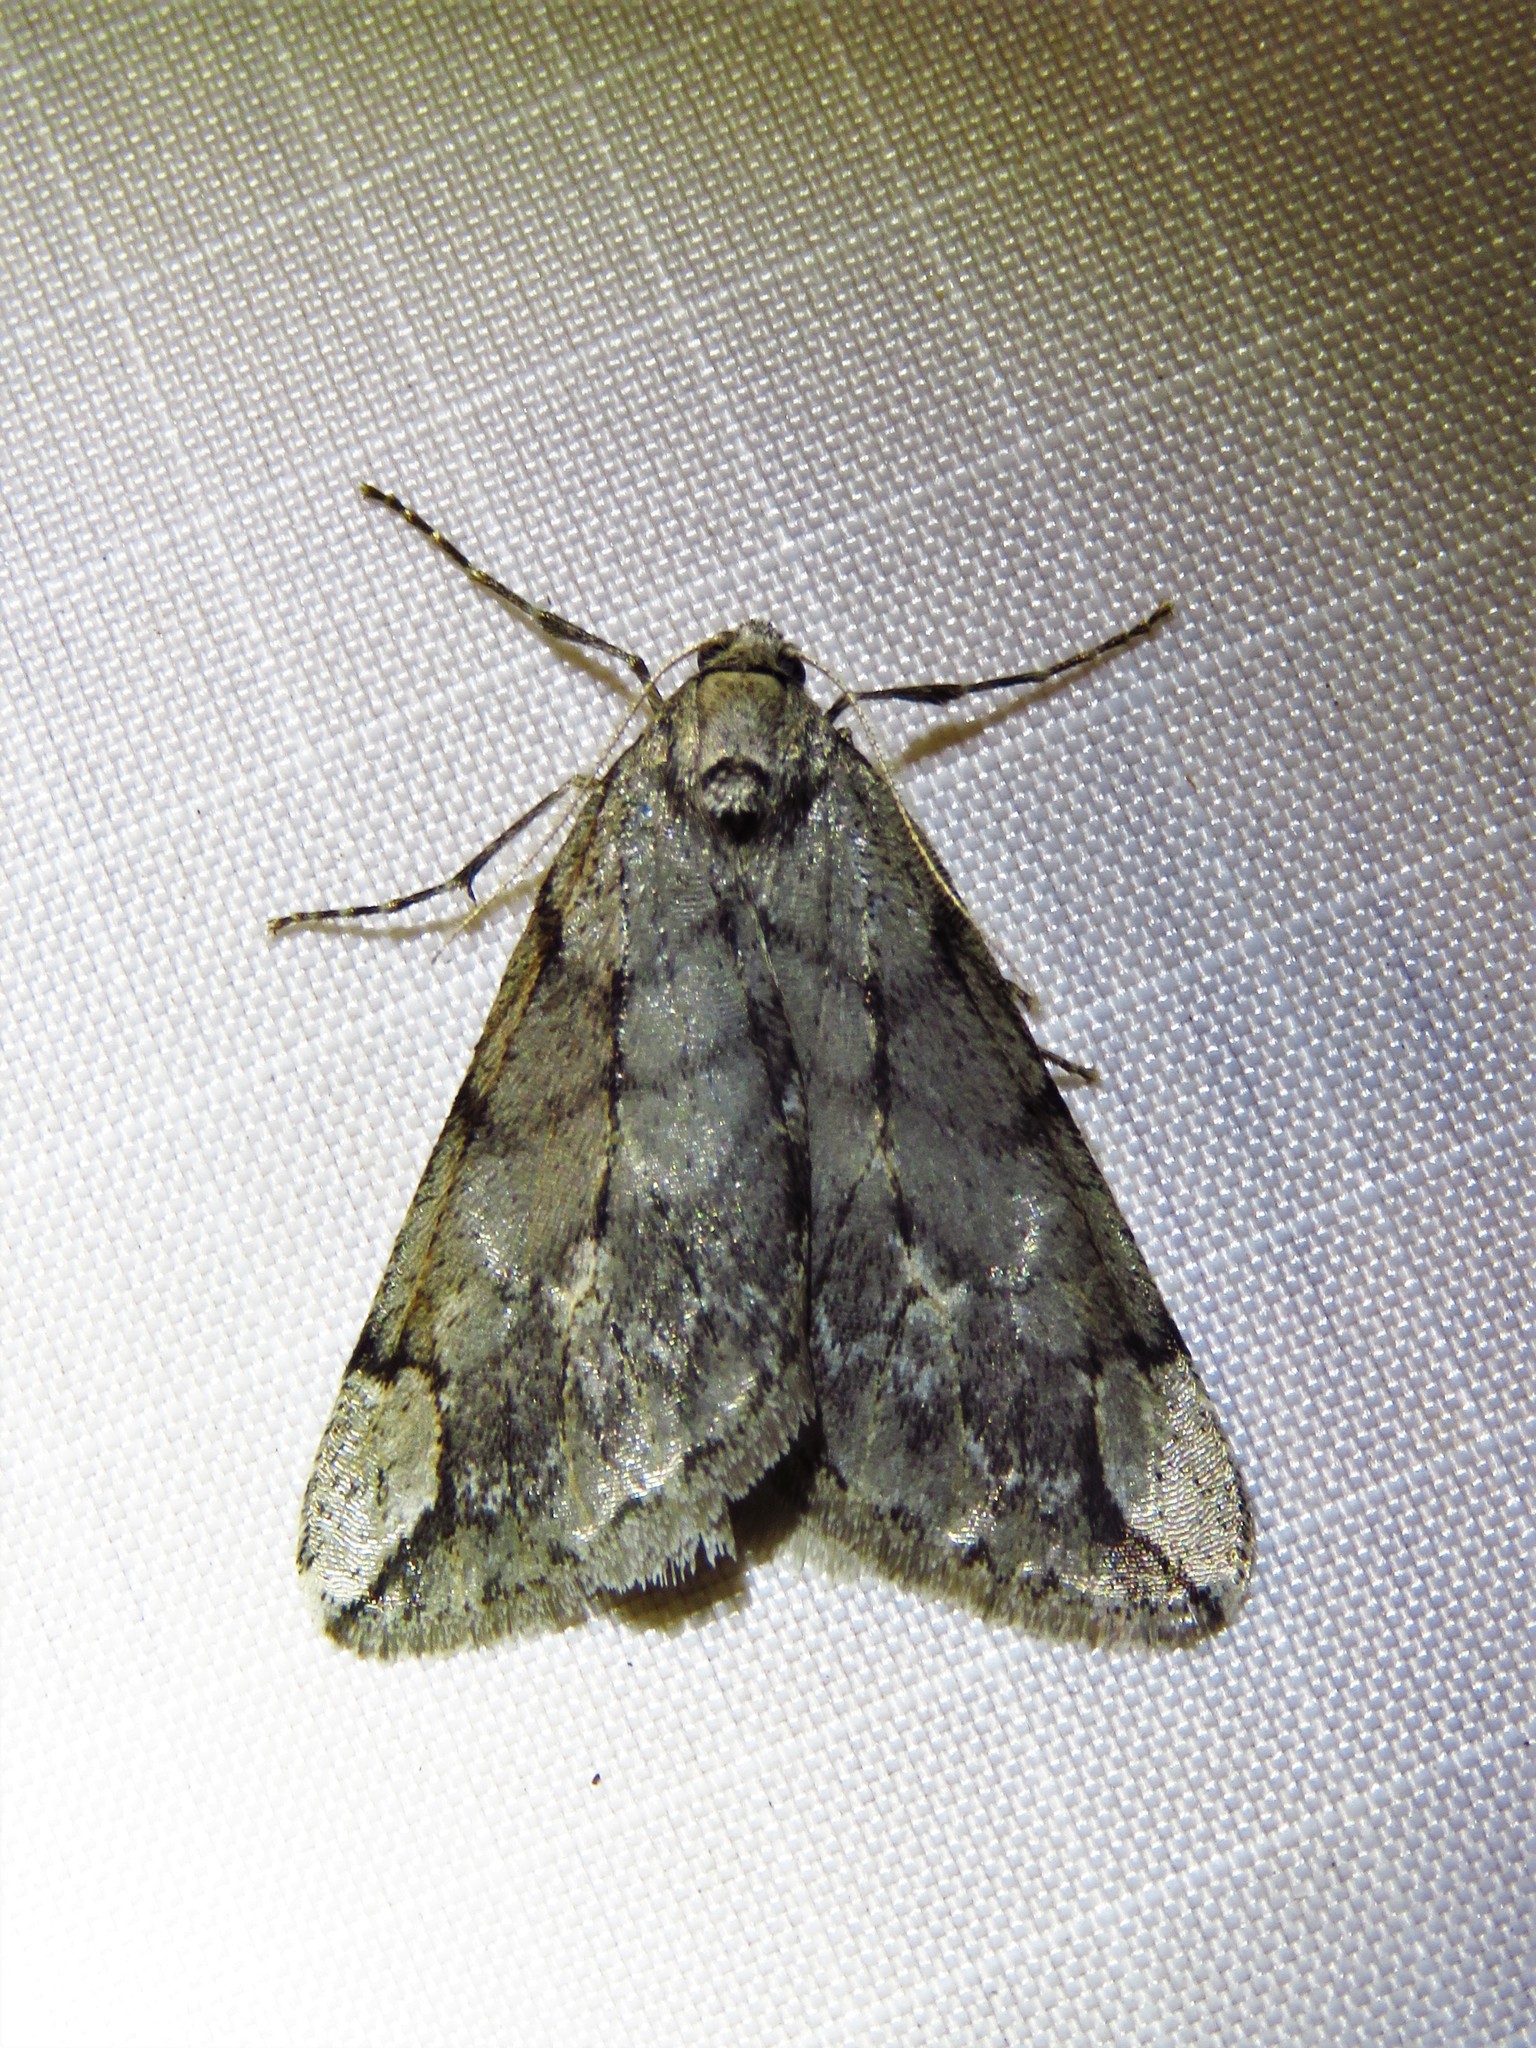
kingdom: Animalia
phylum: Arthropoda
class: Insecta
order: Lepidoptera
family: Geometridae
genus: Paleacrita
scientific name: Paleacrita vernata
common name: Spring cankerworm
